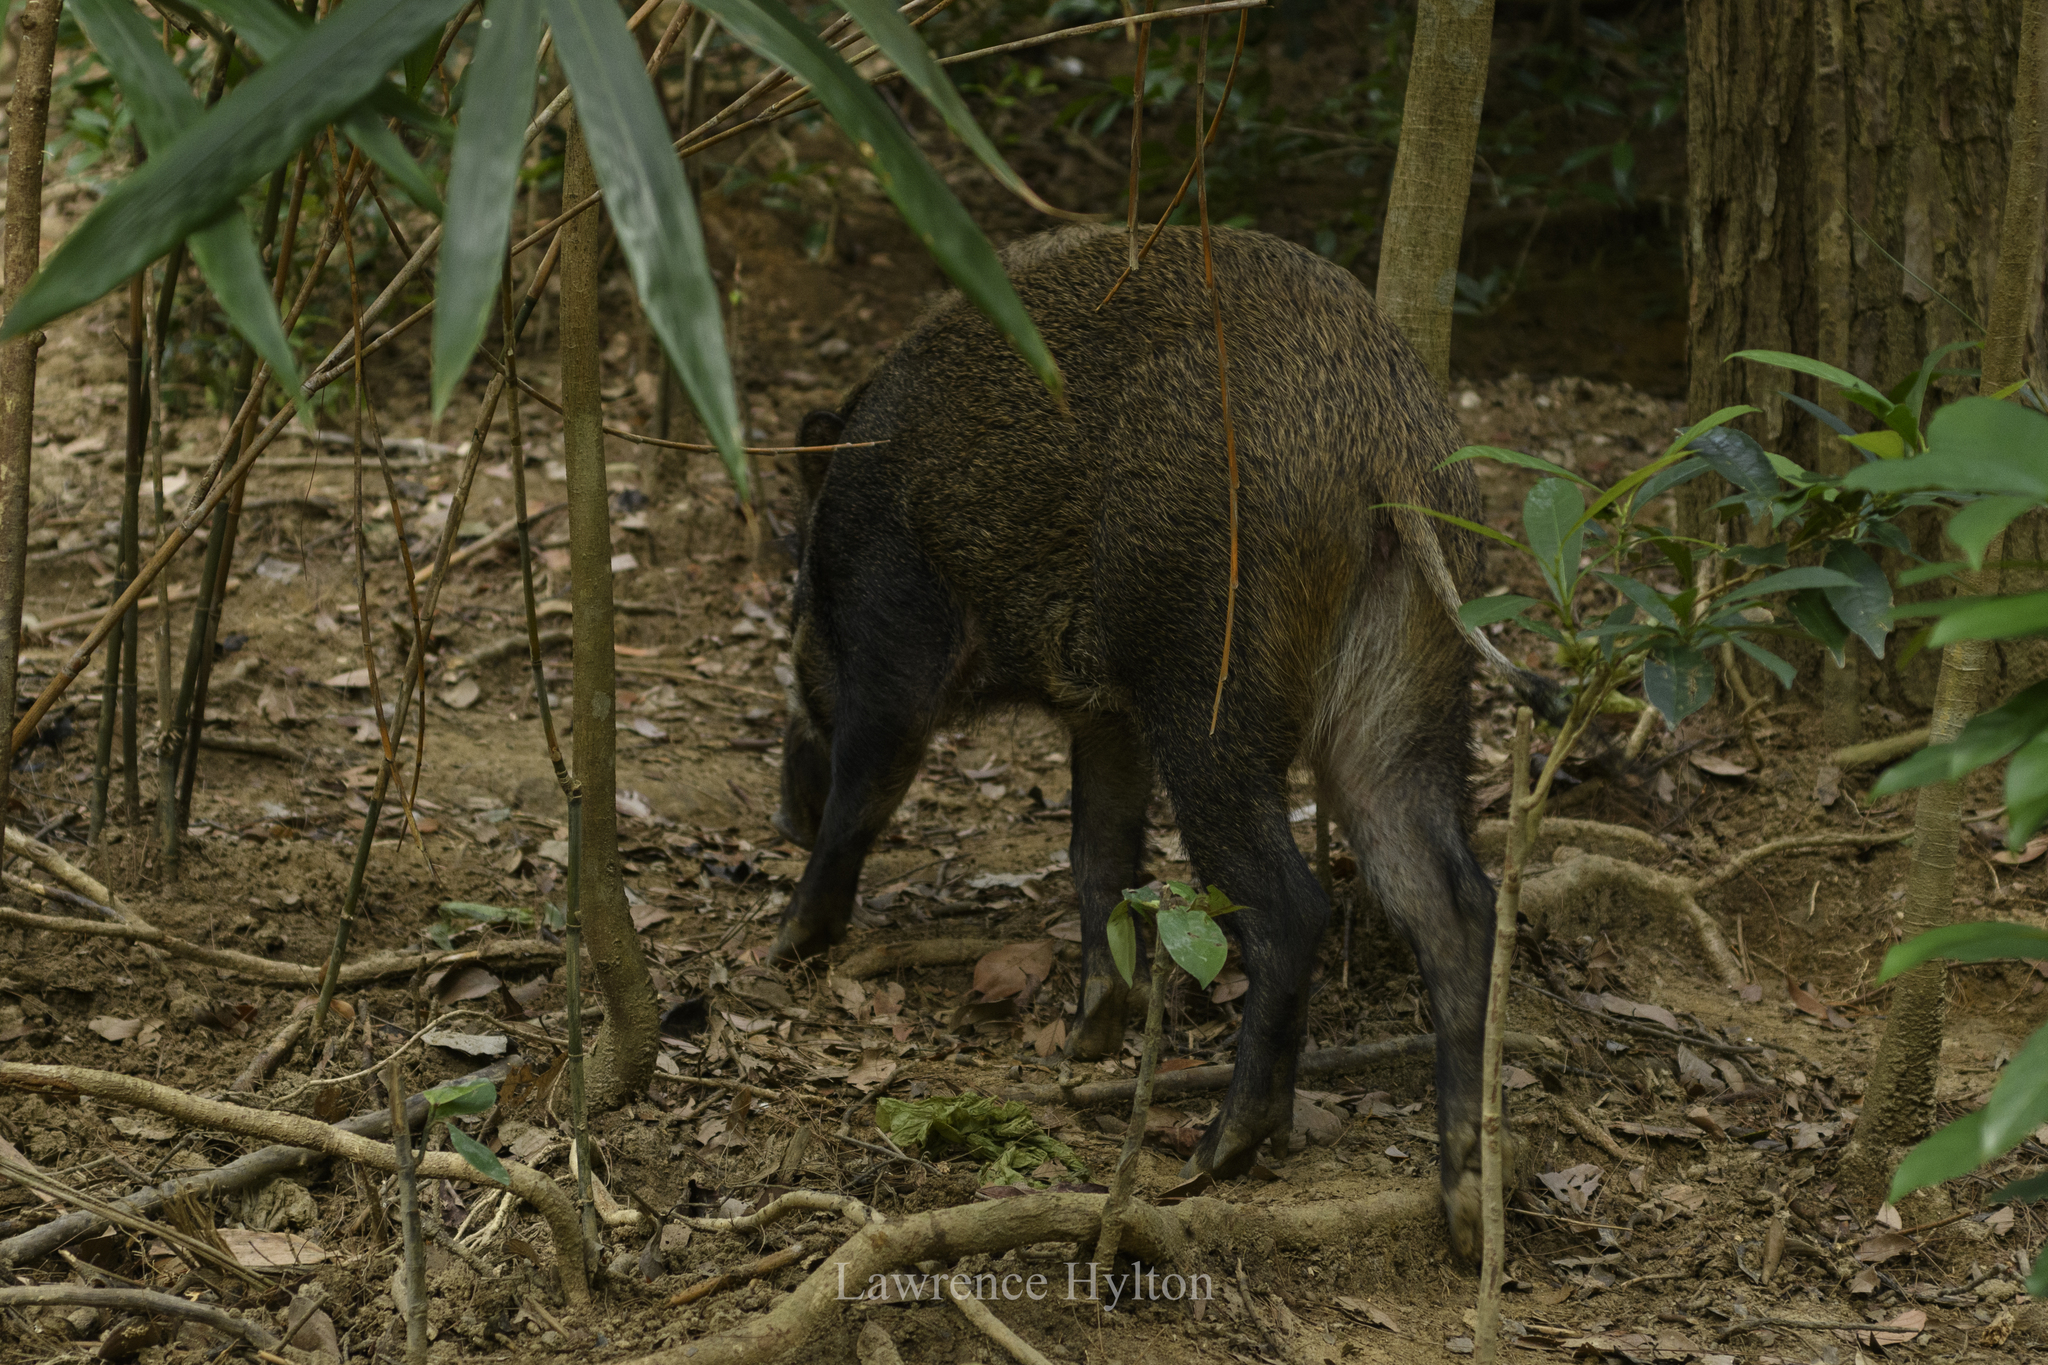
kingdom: Animalia
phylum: Chordata
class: Mammalia
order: Artiodactyla
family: Suidae
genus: Sus
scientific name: Sus scrofa
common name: Wild boar
